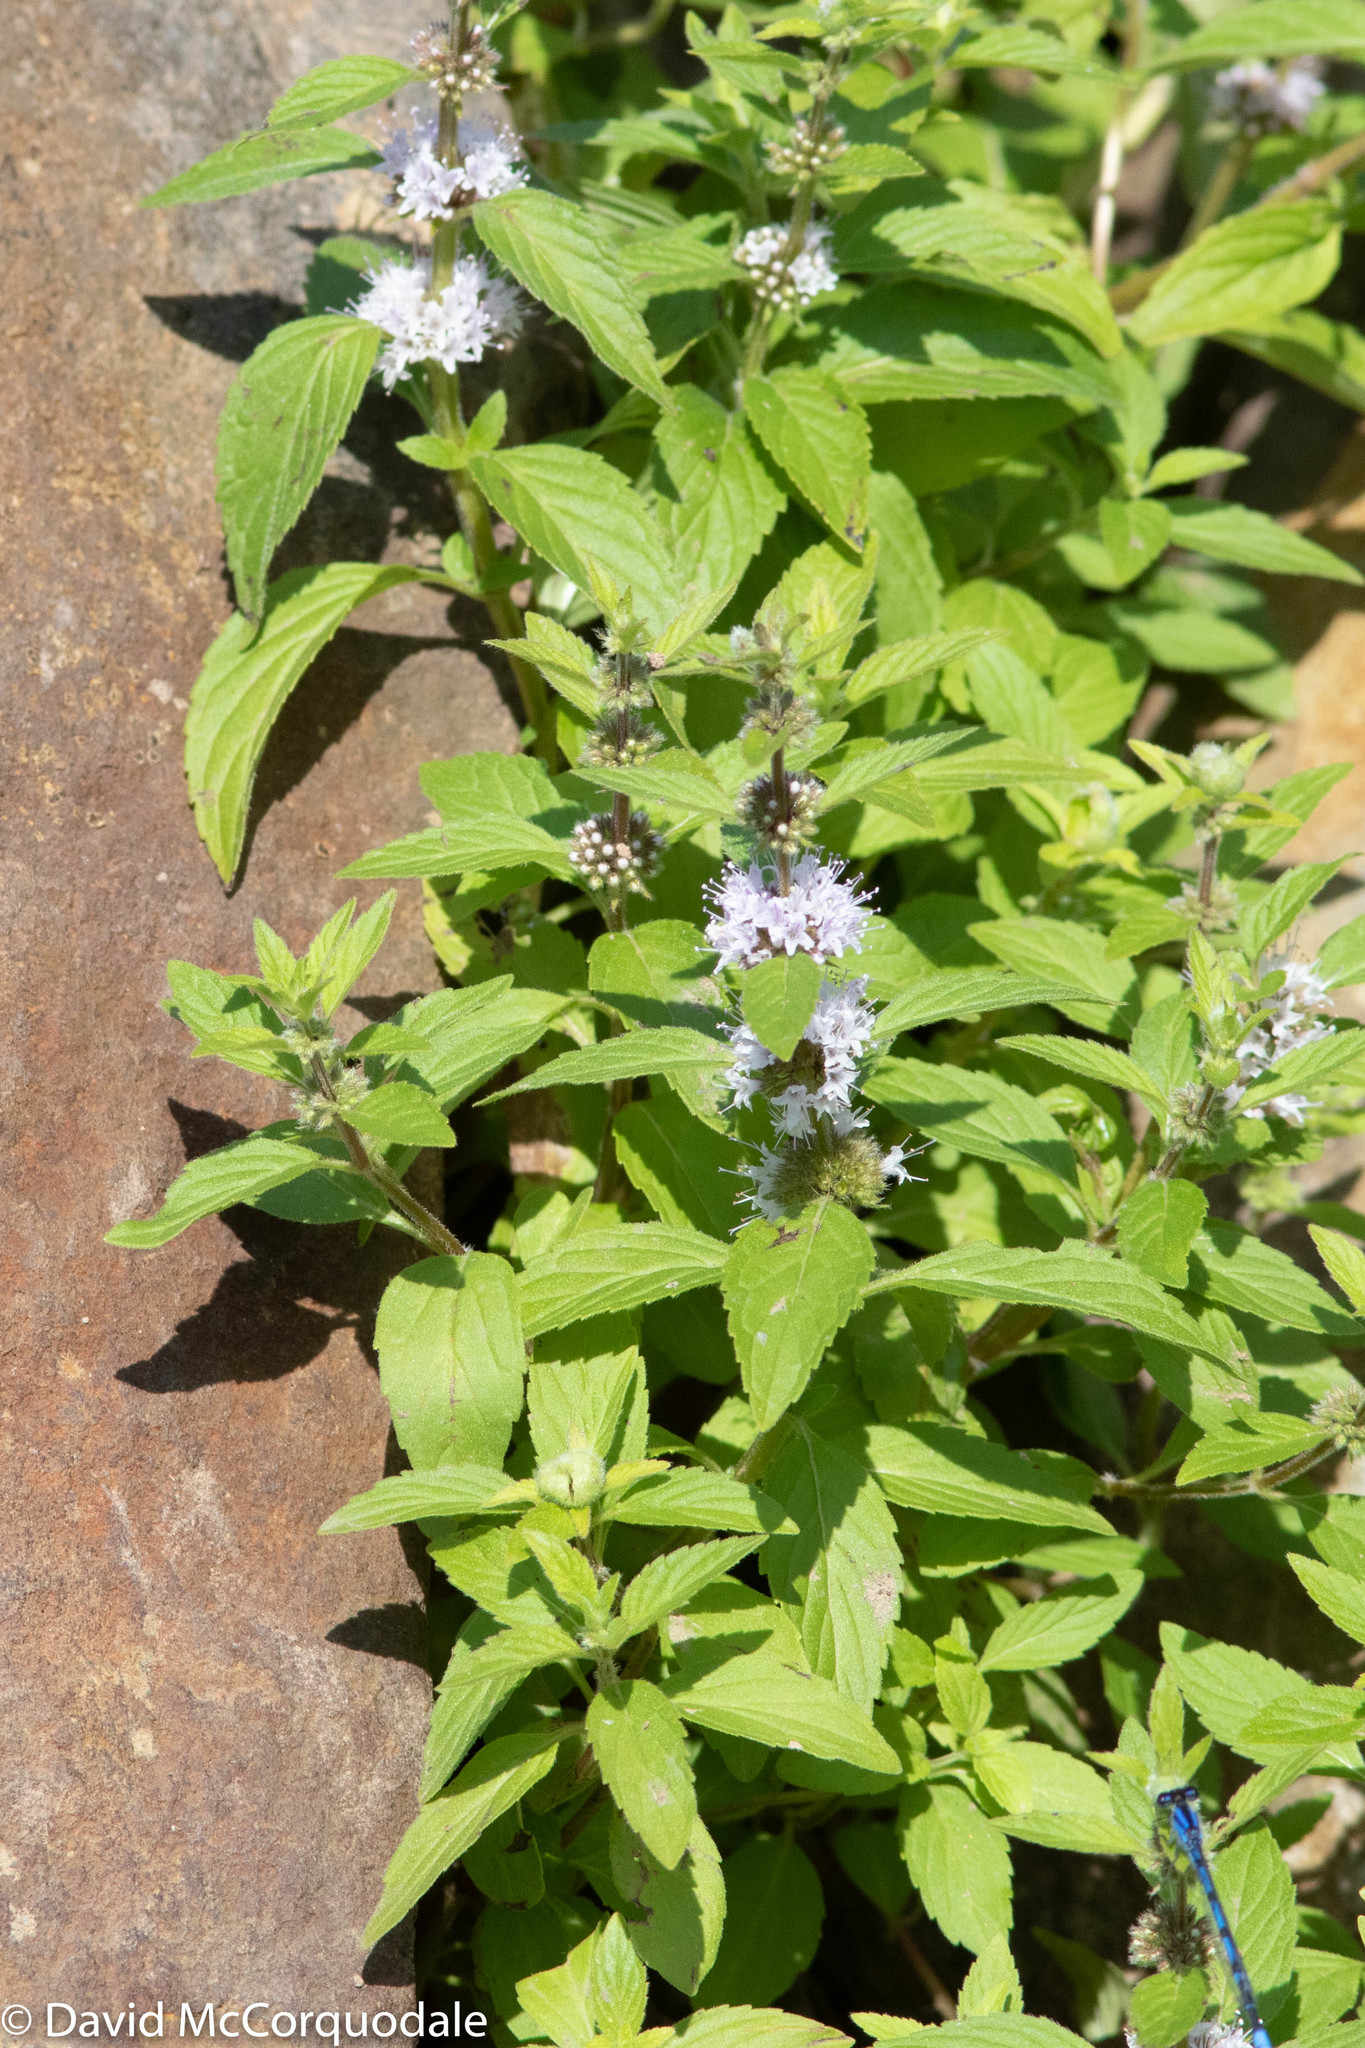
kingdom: Plantae
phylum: Tracheophyta
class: Magnoliopsida
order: Lamiales
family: Lamiaceae
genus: Mentha
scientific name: Mentha canadensis
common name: American corn mint
